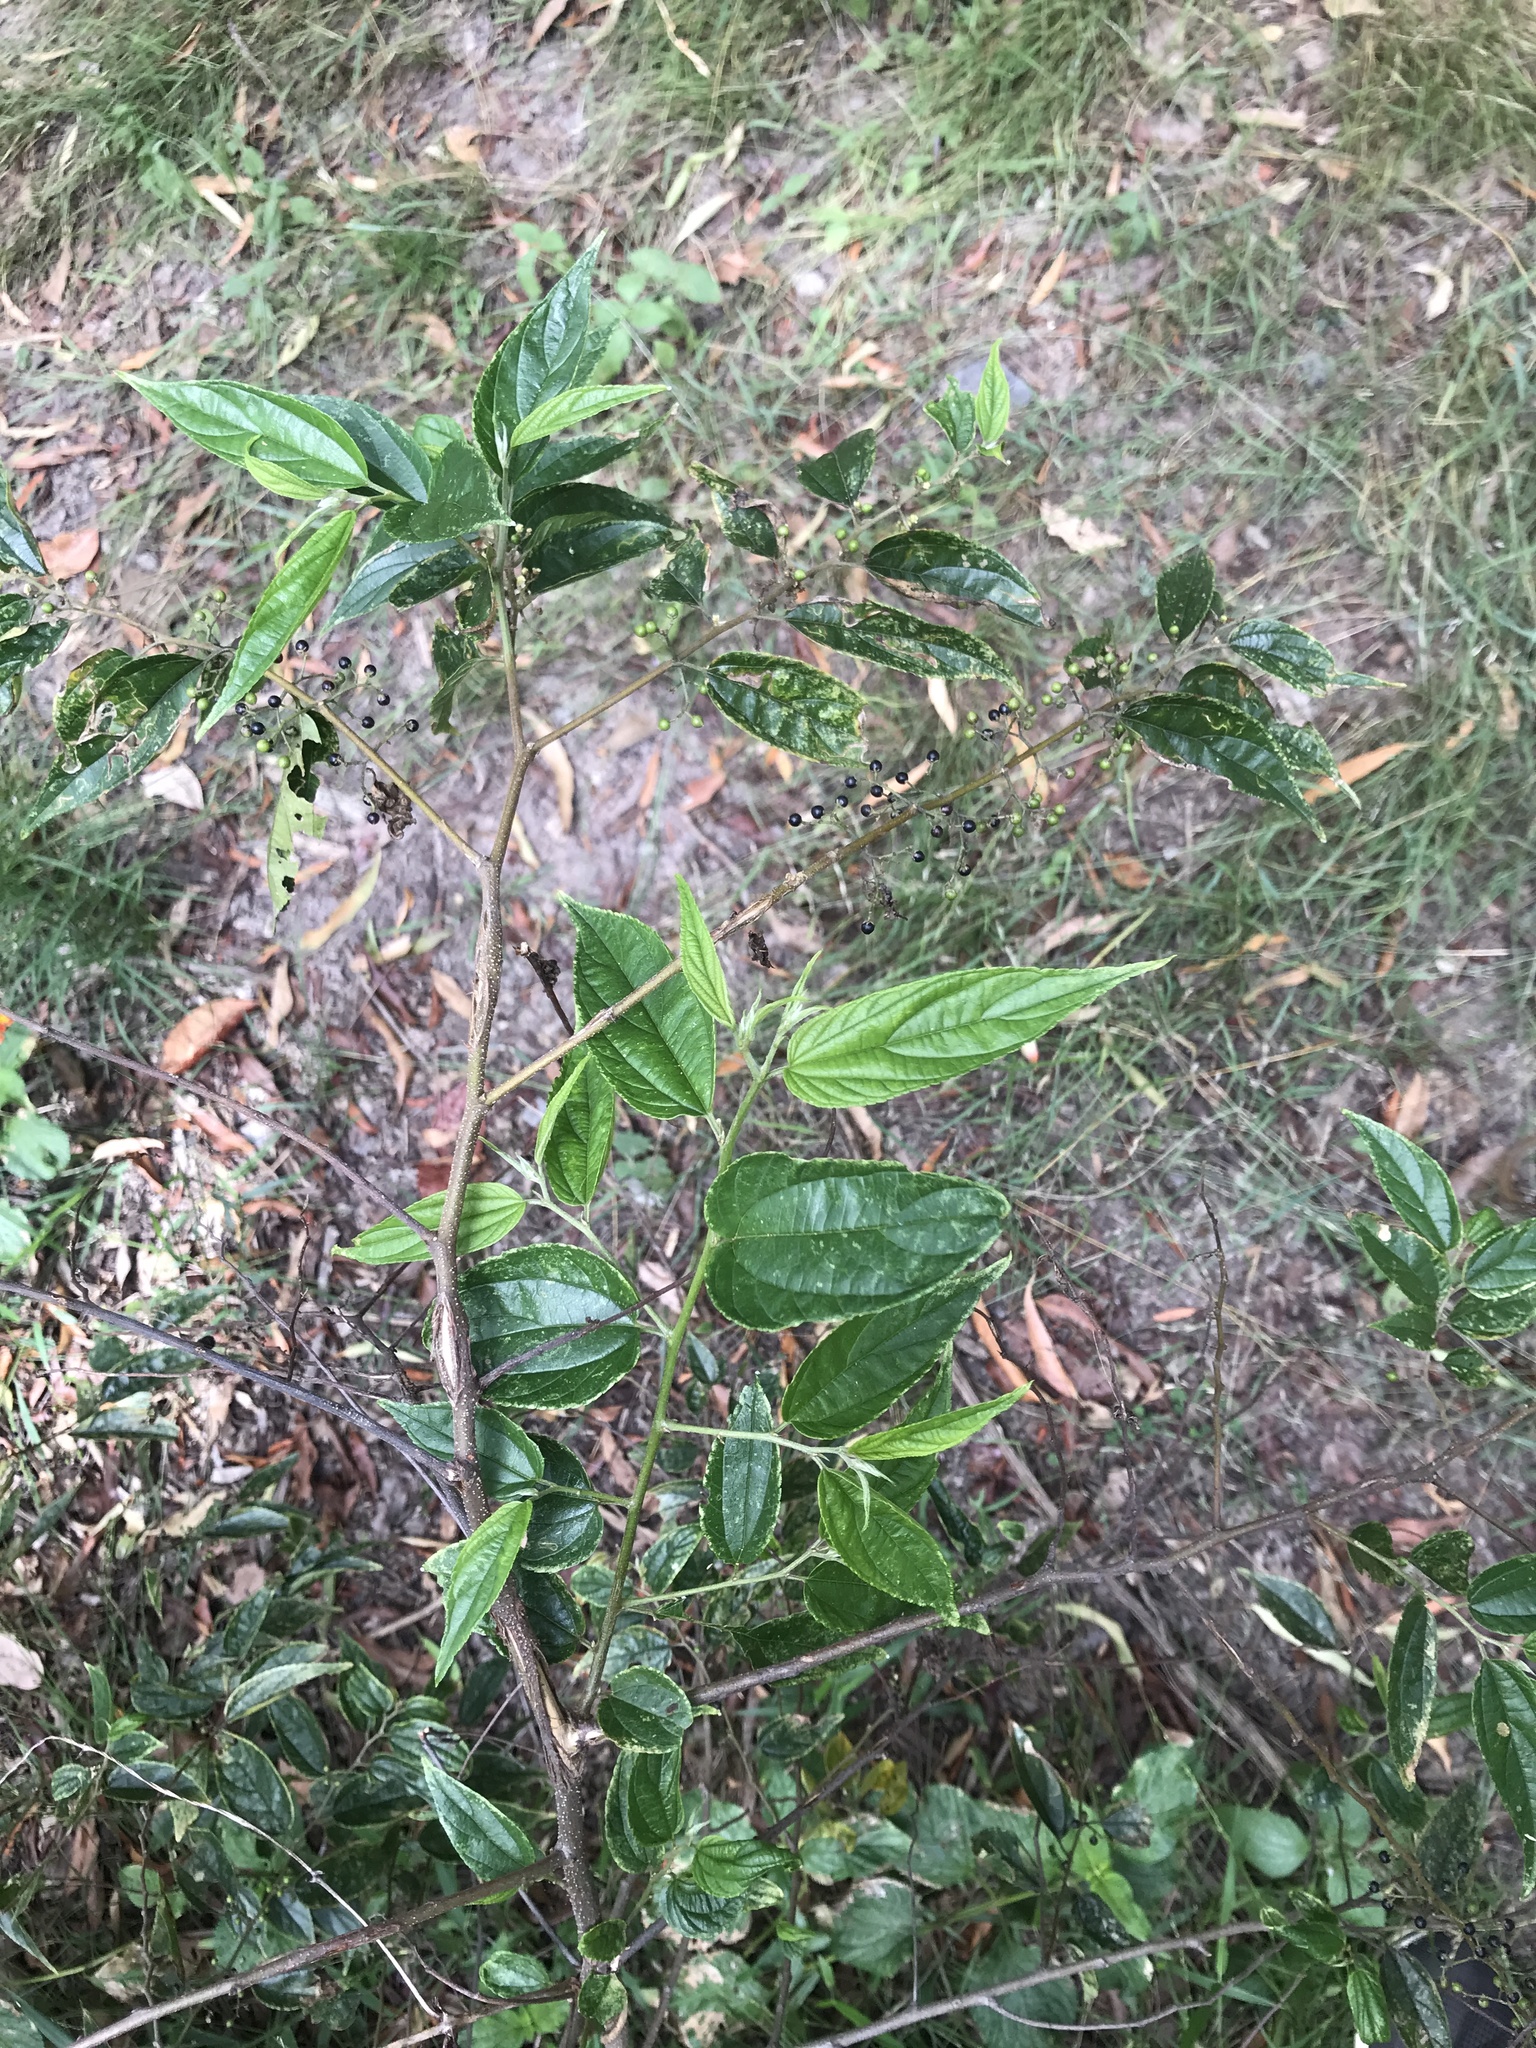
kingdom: Plantae
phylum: Tracheophyta
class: Magnoliopsida
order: Rosales
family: Cannabaceae
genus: Trema
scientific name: Trema tomentosum
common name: Peach-leaf-poisonbush
